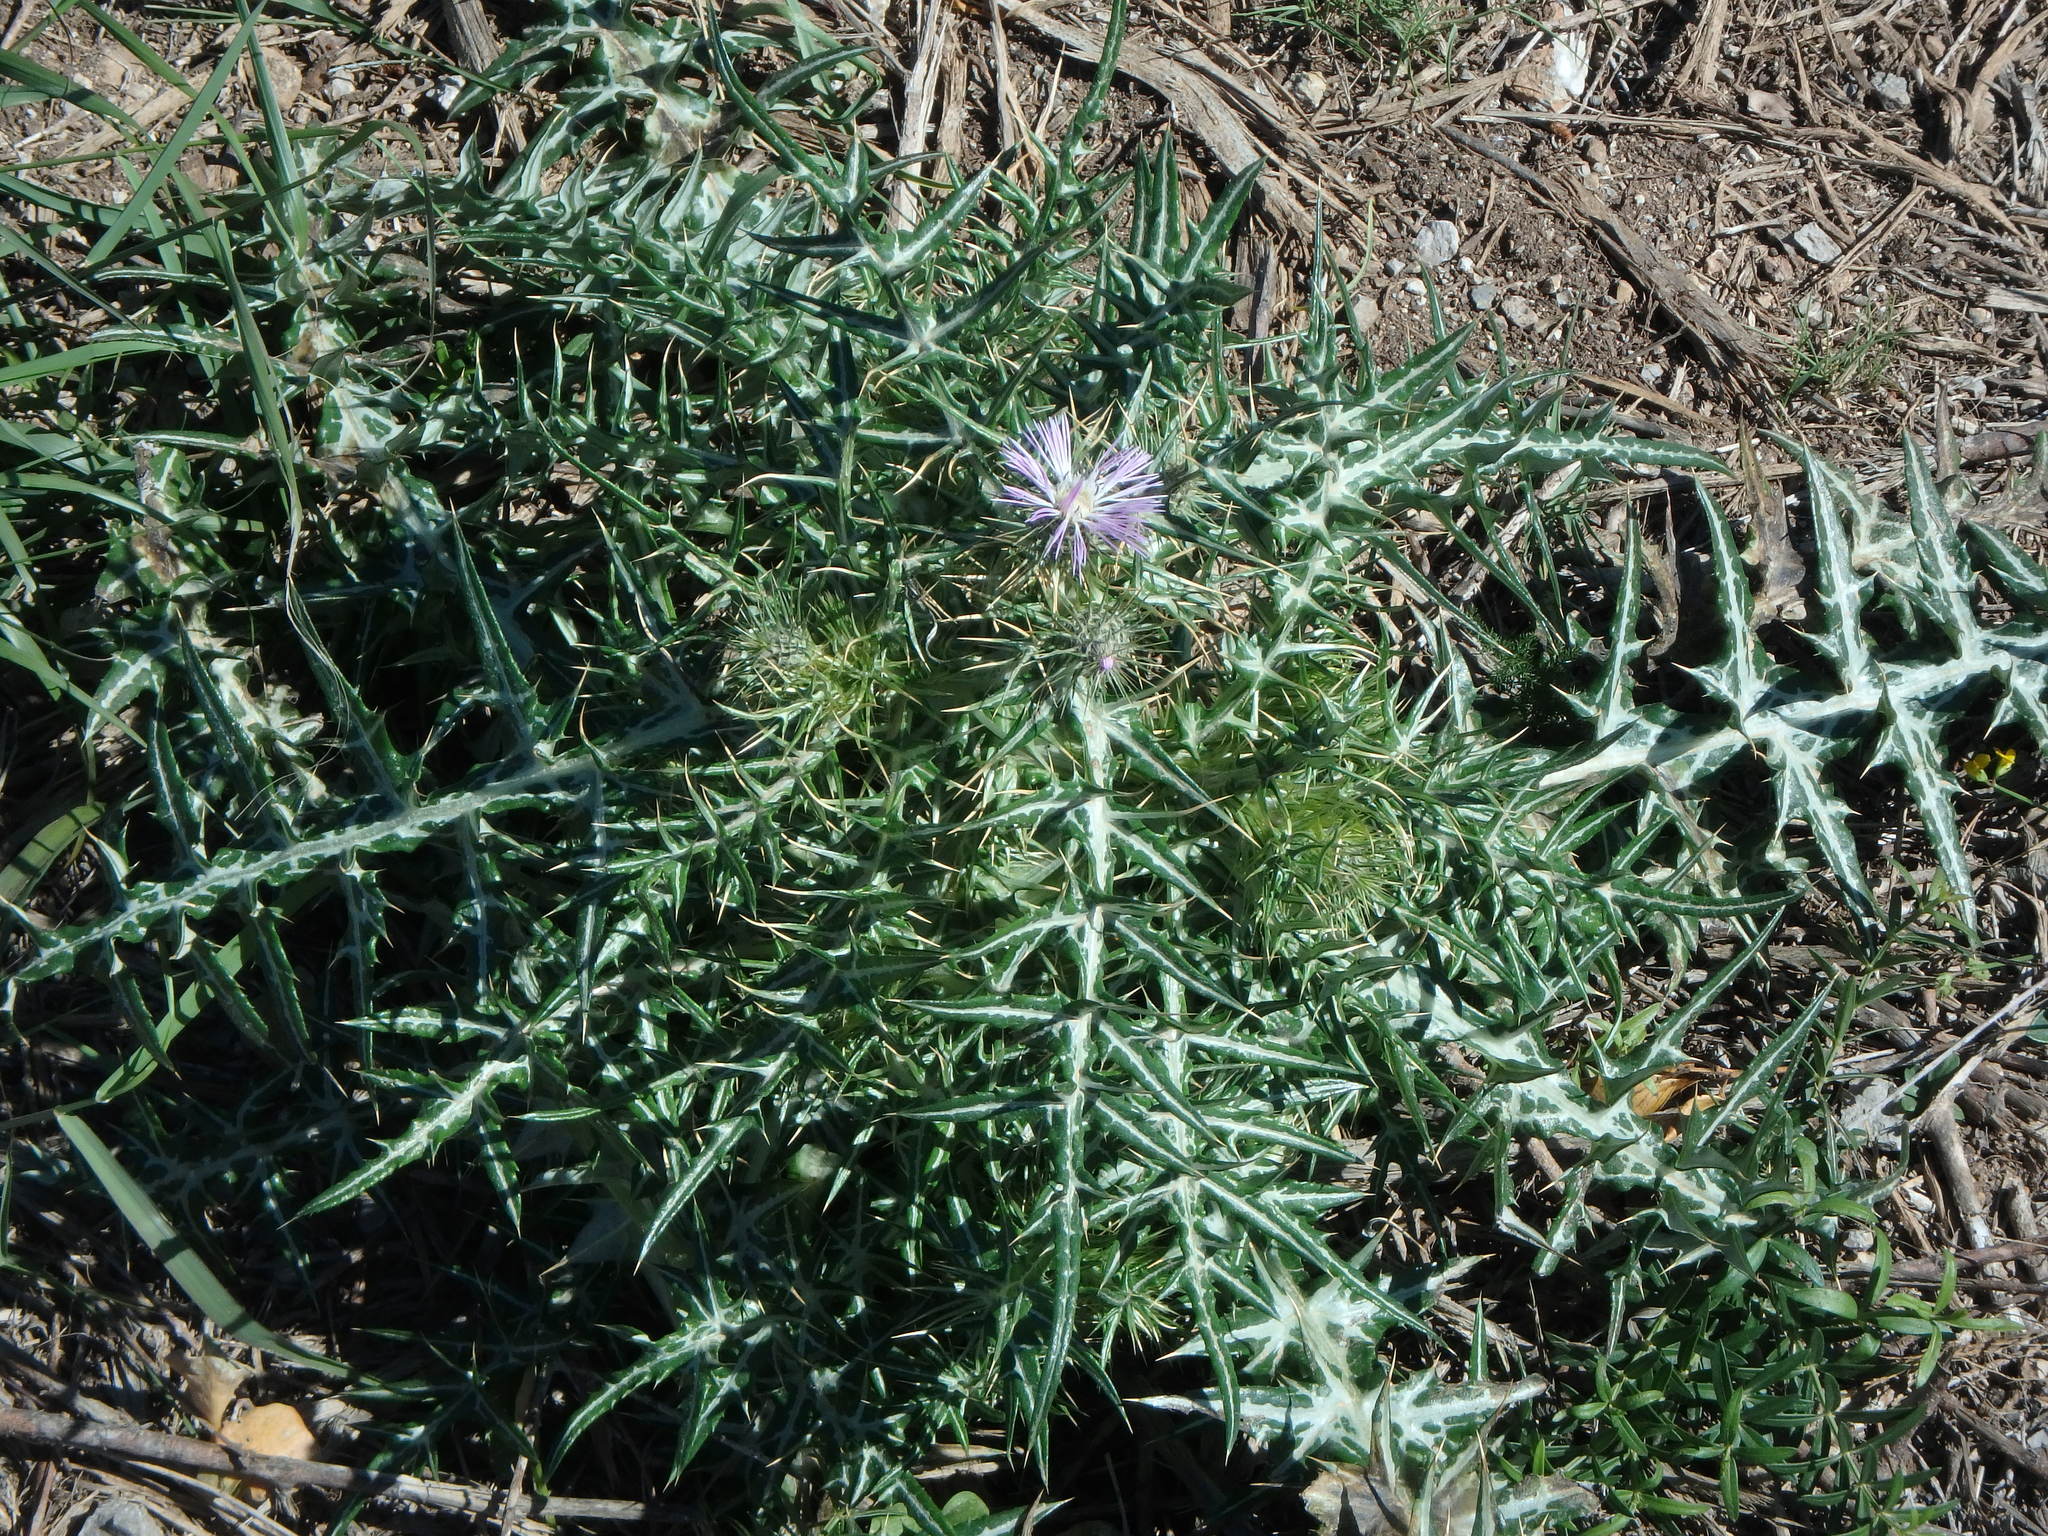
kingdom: Plantae
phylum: Tracheophyta
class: Magnoliopsida
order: Asterales
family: Asteraceae
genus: Galactites
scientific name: Galactites tomentosa
